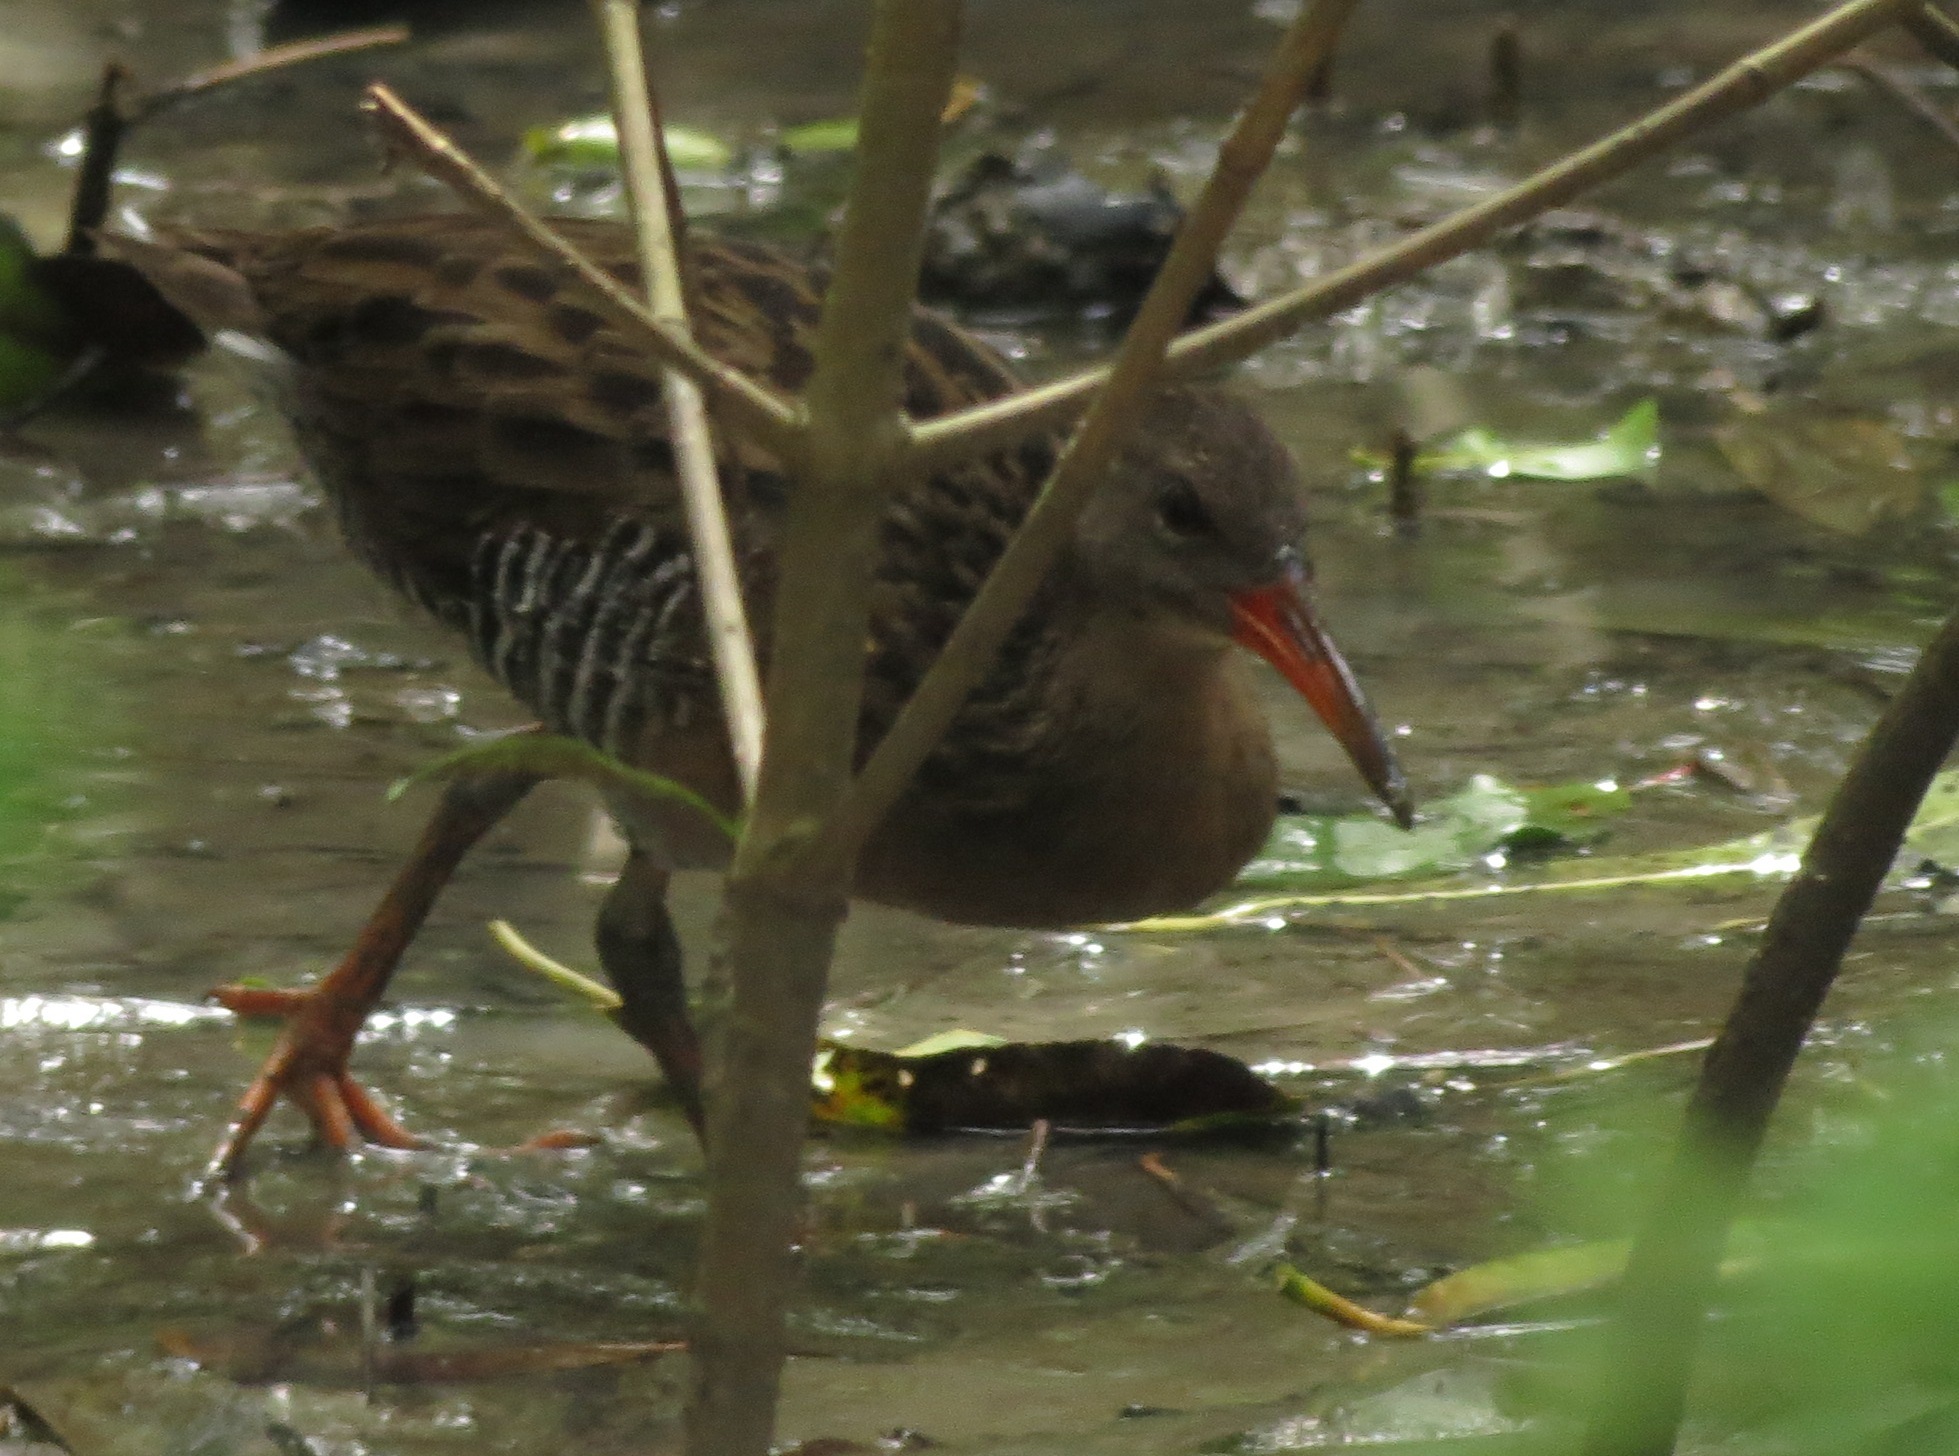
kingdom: Animalia
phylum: Chordata
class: Aves
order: Gruiformes
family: Rallidae
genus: Rallus
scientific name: Rallus longirostris
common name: Mangrove rail
